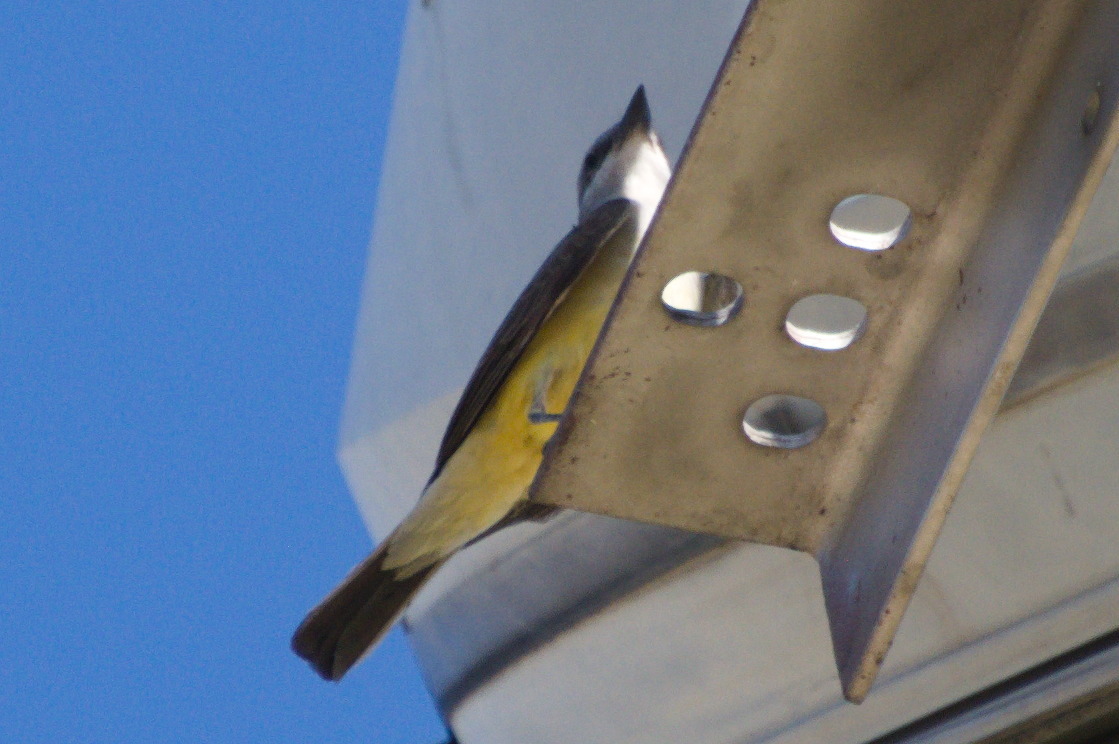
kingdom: Animalia
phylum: Chordata
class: Aves
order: Passeriformes
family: Tyrannidae
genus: Tyrannus
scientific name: Tyrannus verticalis
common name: Western kingbird
